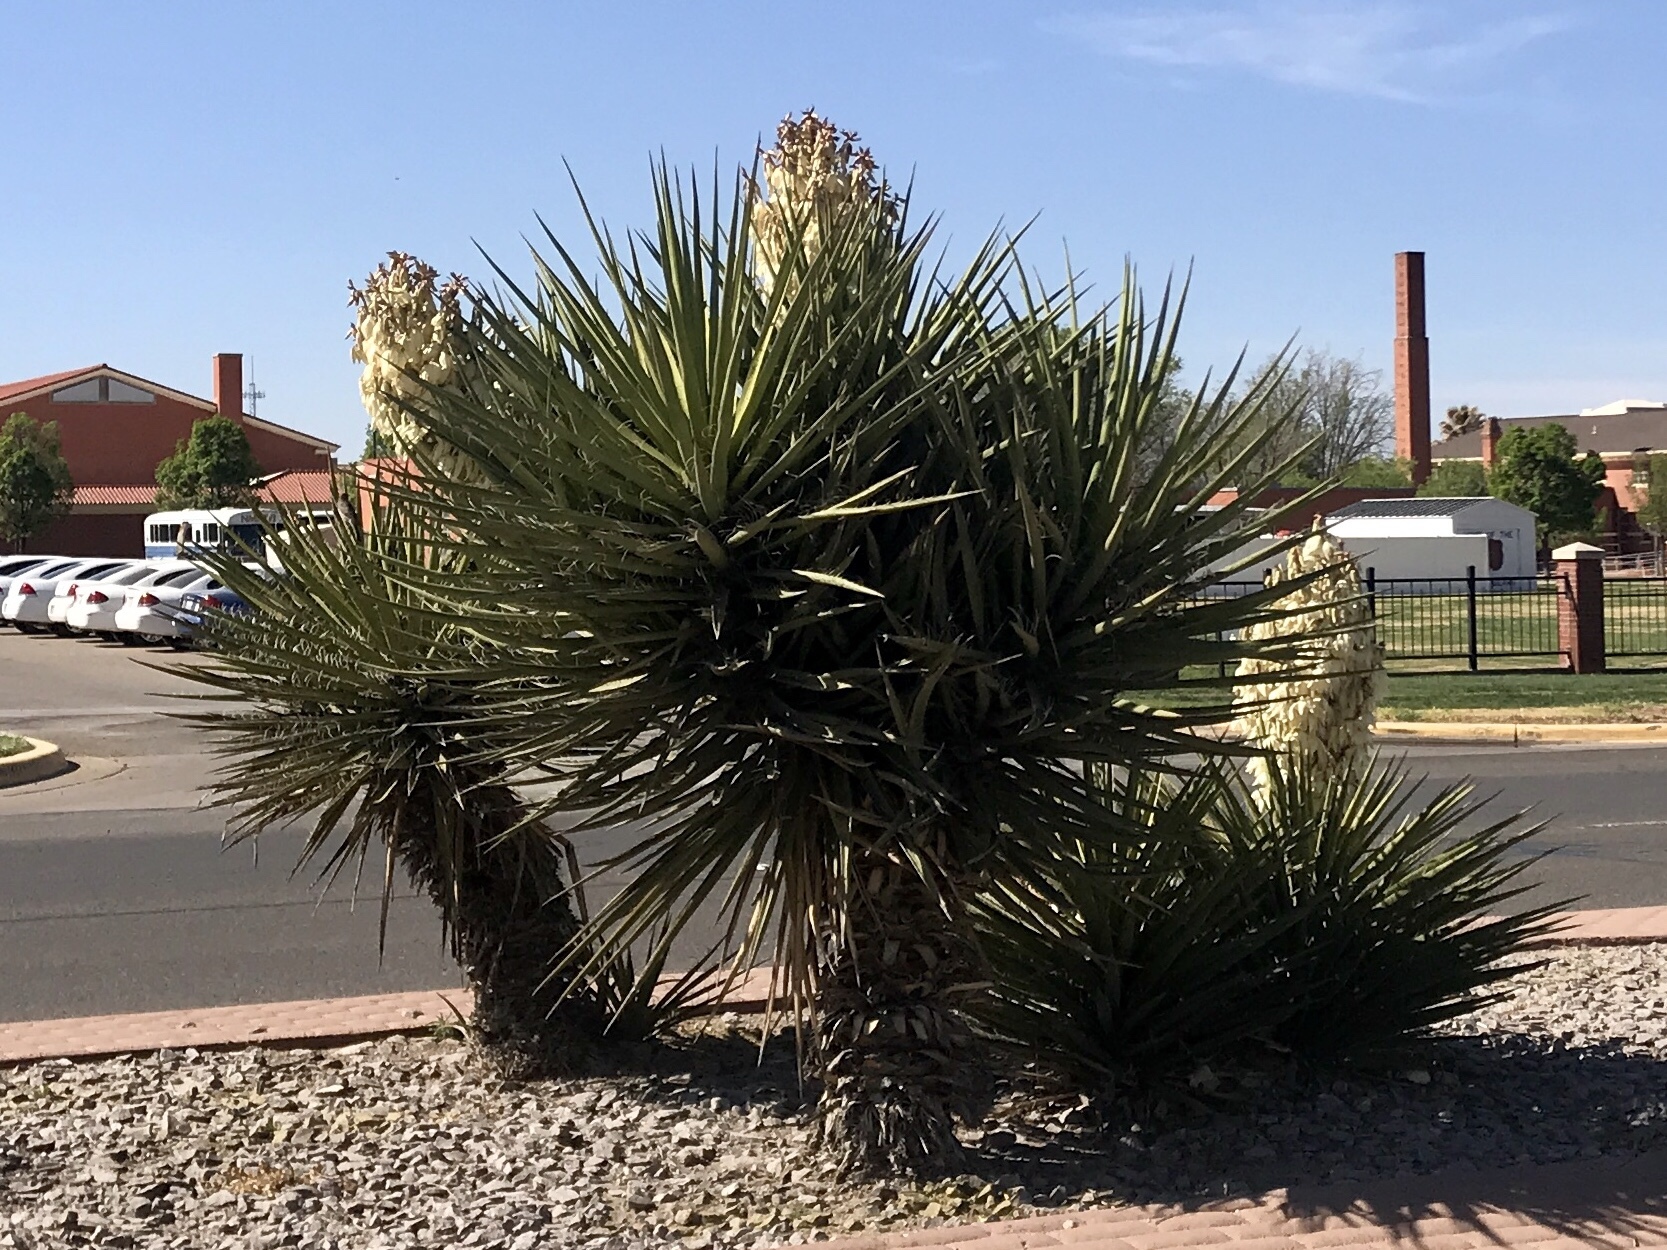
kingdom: Plantae
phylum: Tracheophyta
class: Liliopsida
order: Asparagales
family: Asparagaceae
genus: Yucca
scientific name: Yucca treculiana
